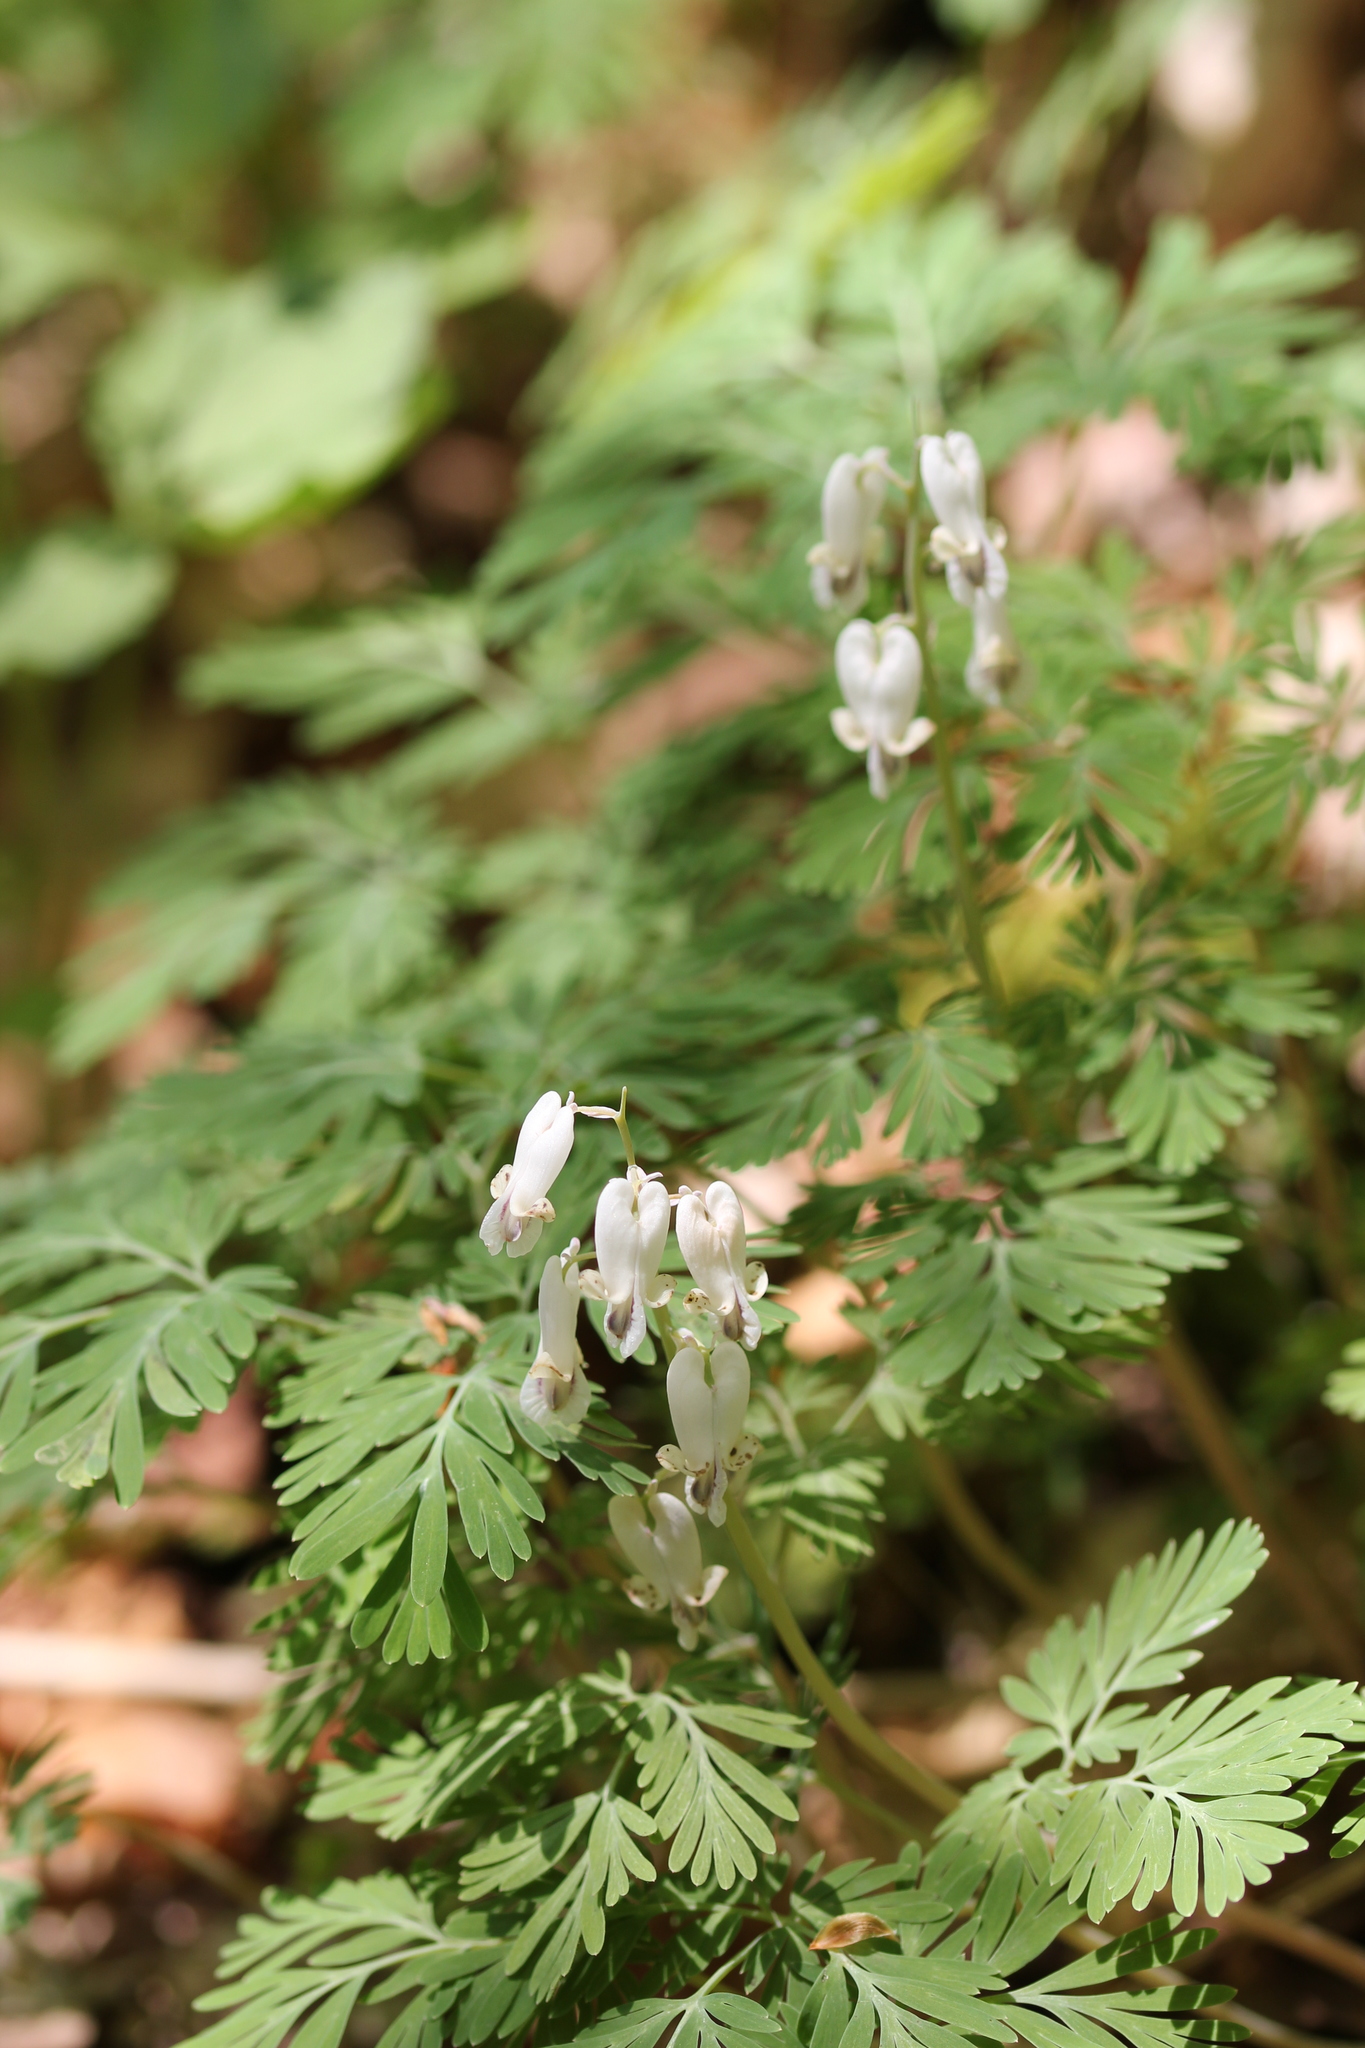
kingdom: Plantae
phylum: Tracheophyta
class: Magnoliopsida
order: Ranunculales
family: Papaveraceae
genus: Dicentra
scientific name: Dicentra canadensis
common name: Squirrel-corn
